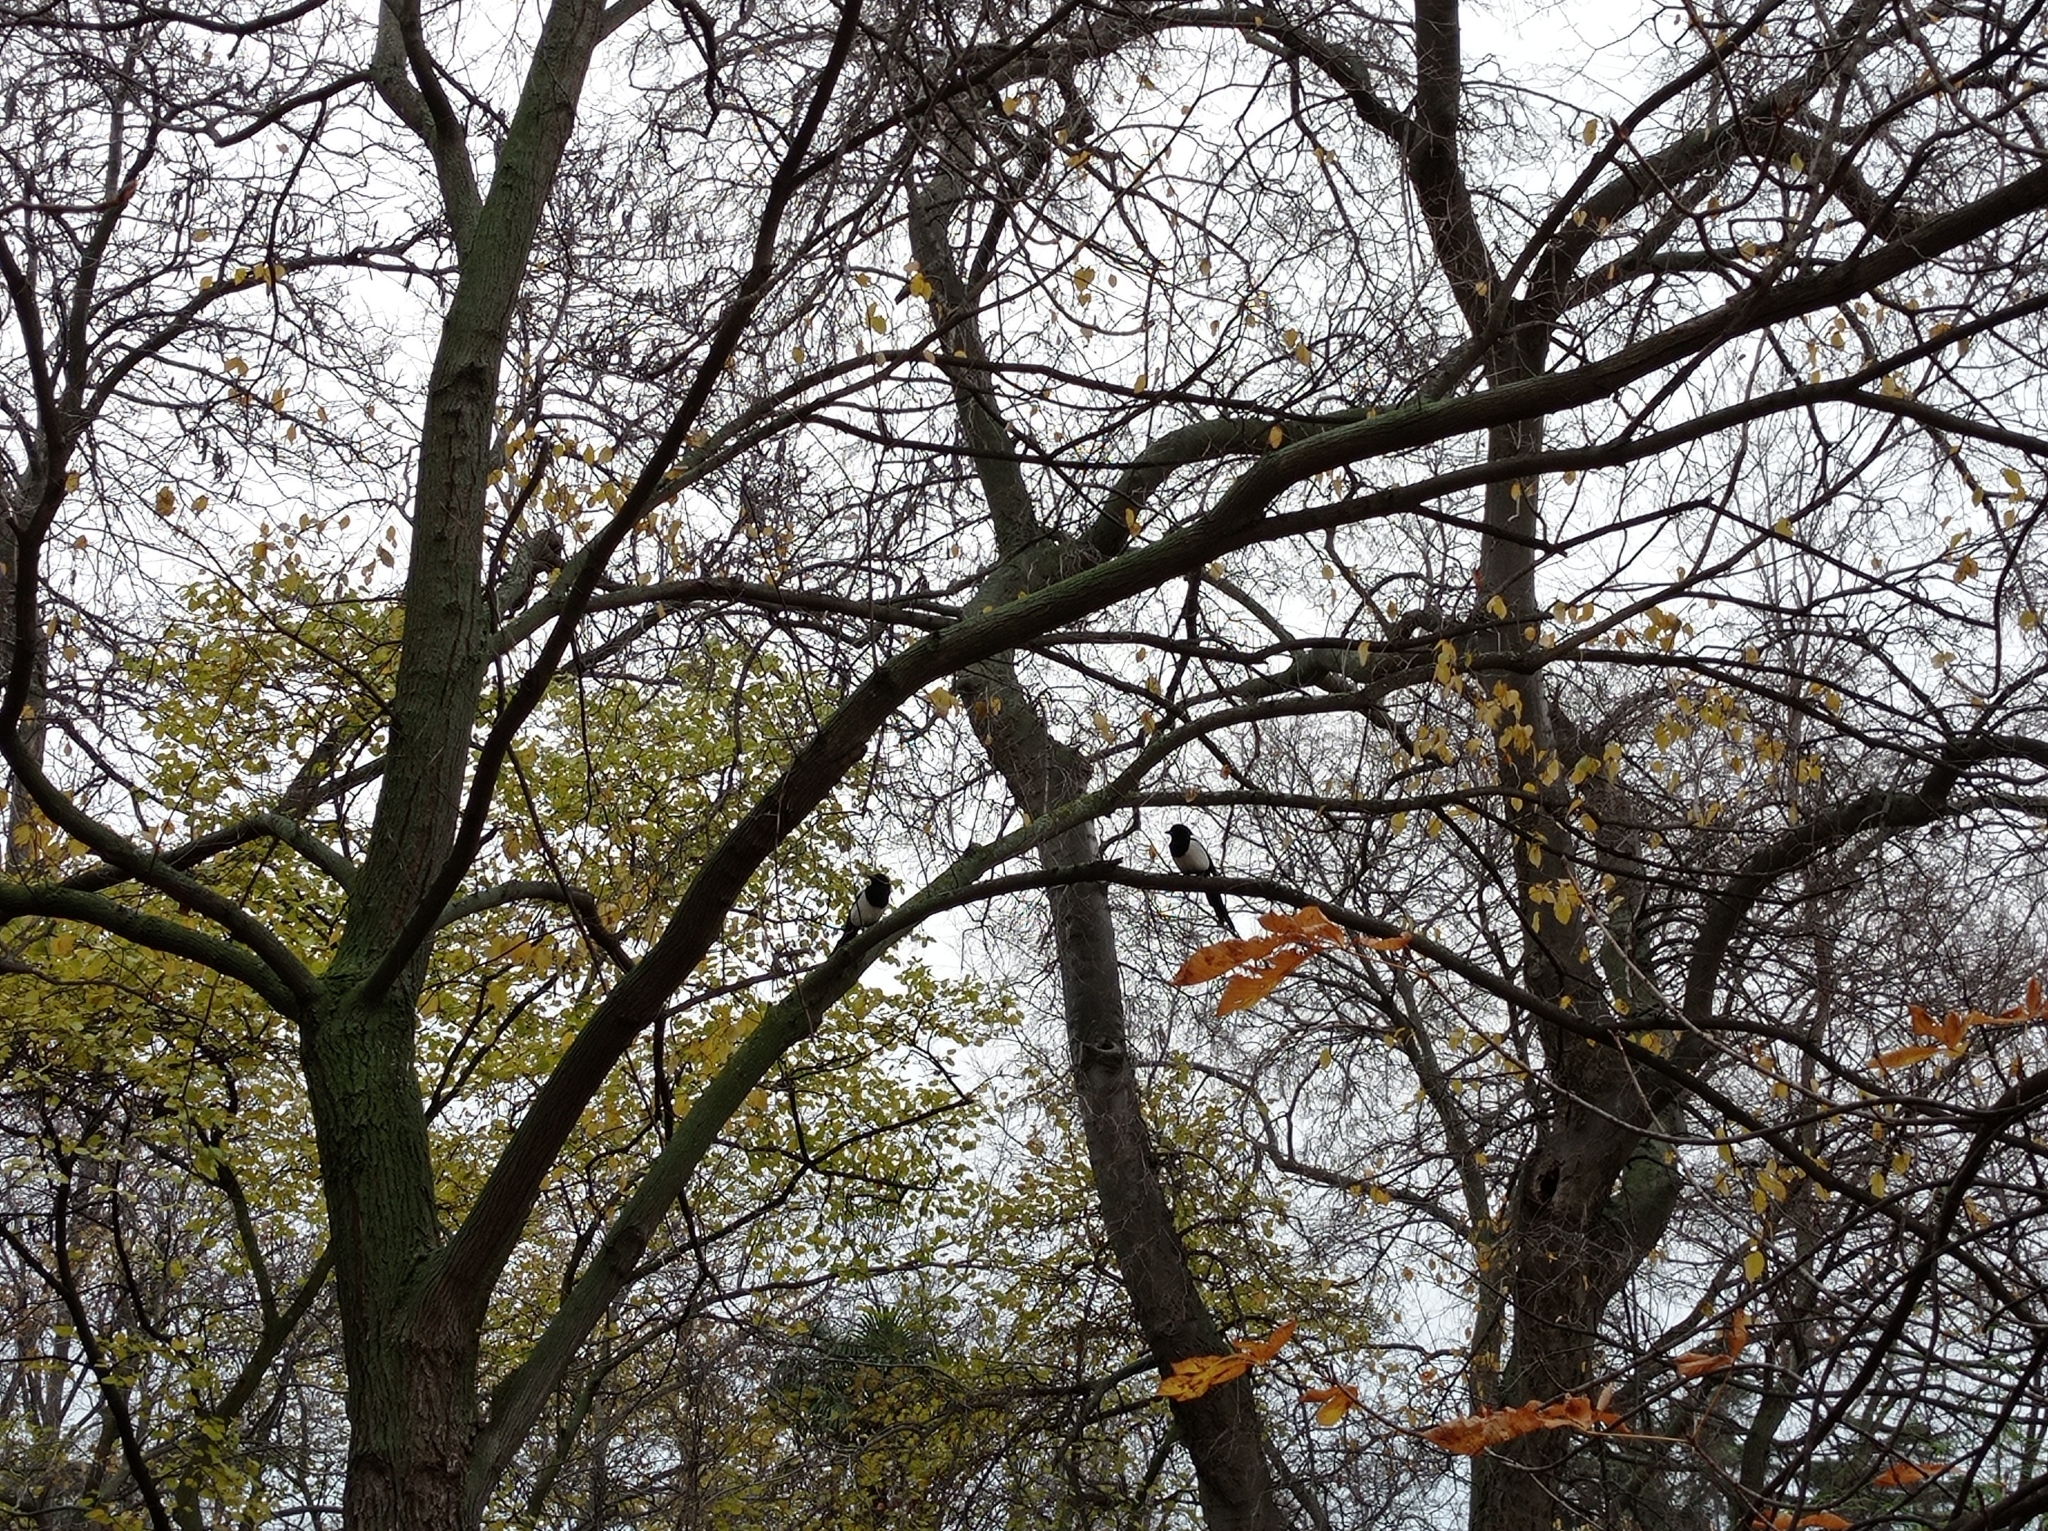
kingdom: Animalia
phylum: Chordata
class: Aves
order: Passeriformes
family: Corvidae
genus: Pica
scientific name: Pica pica
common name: Eurasian magpie
